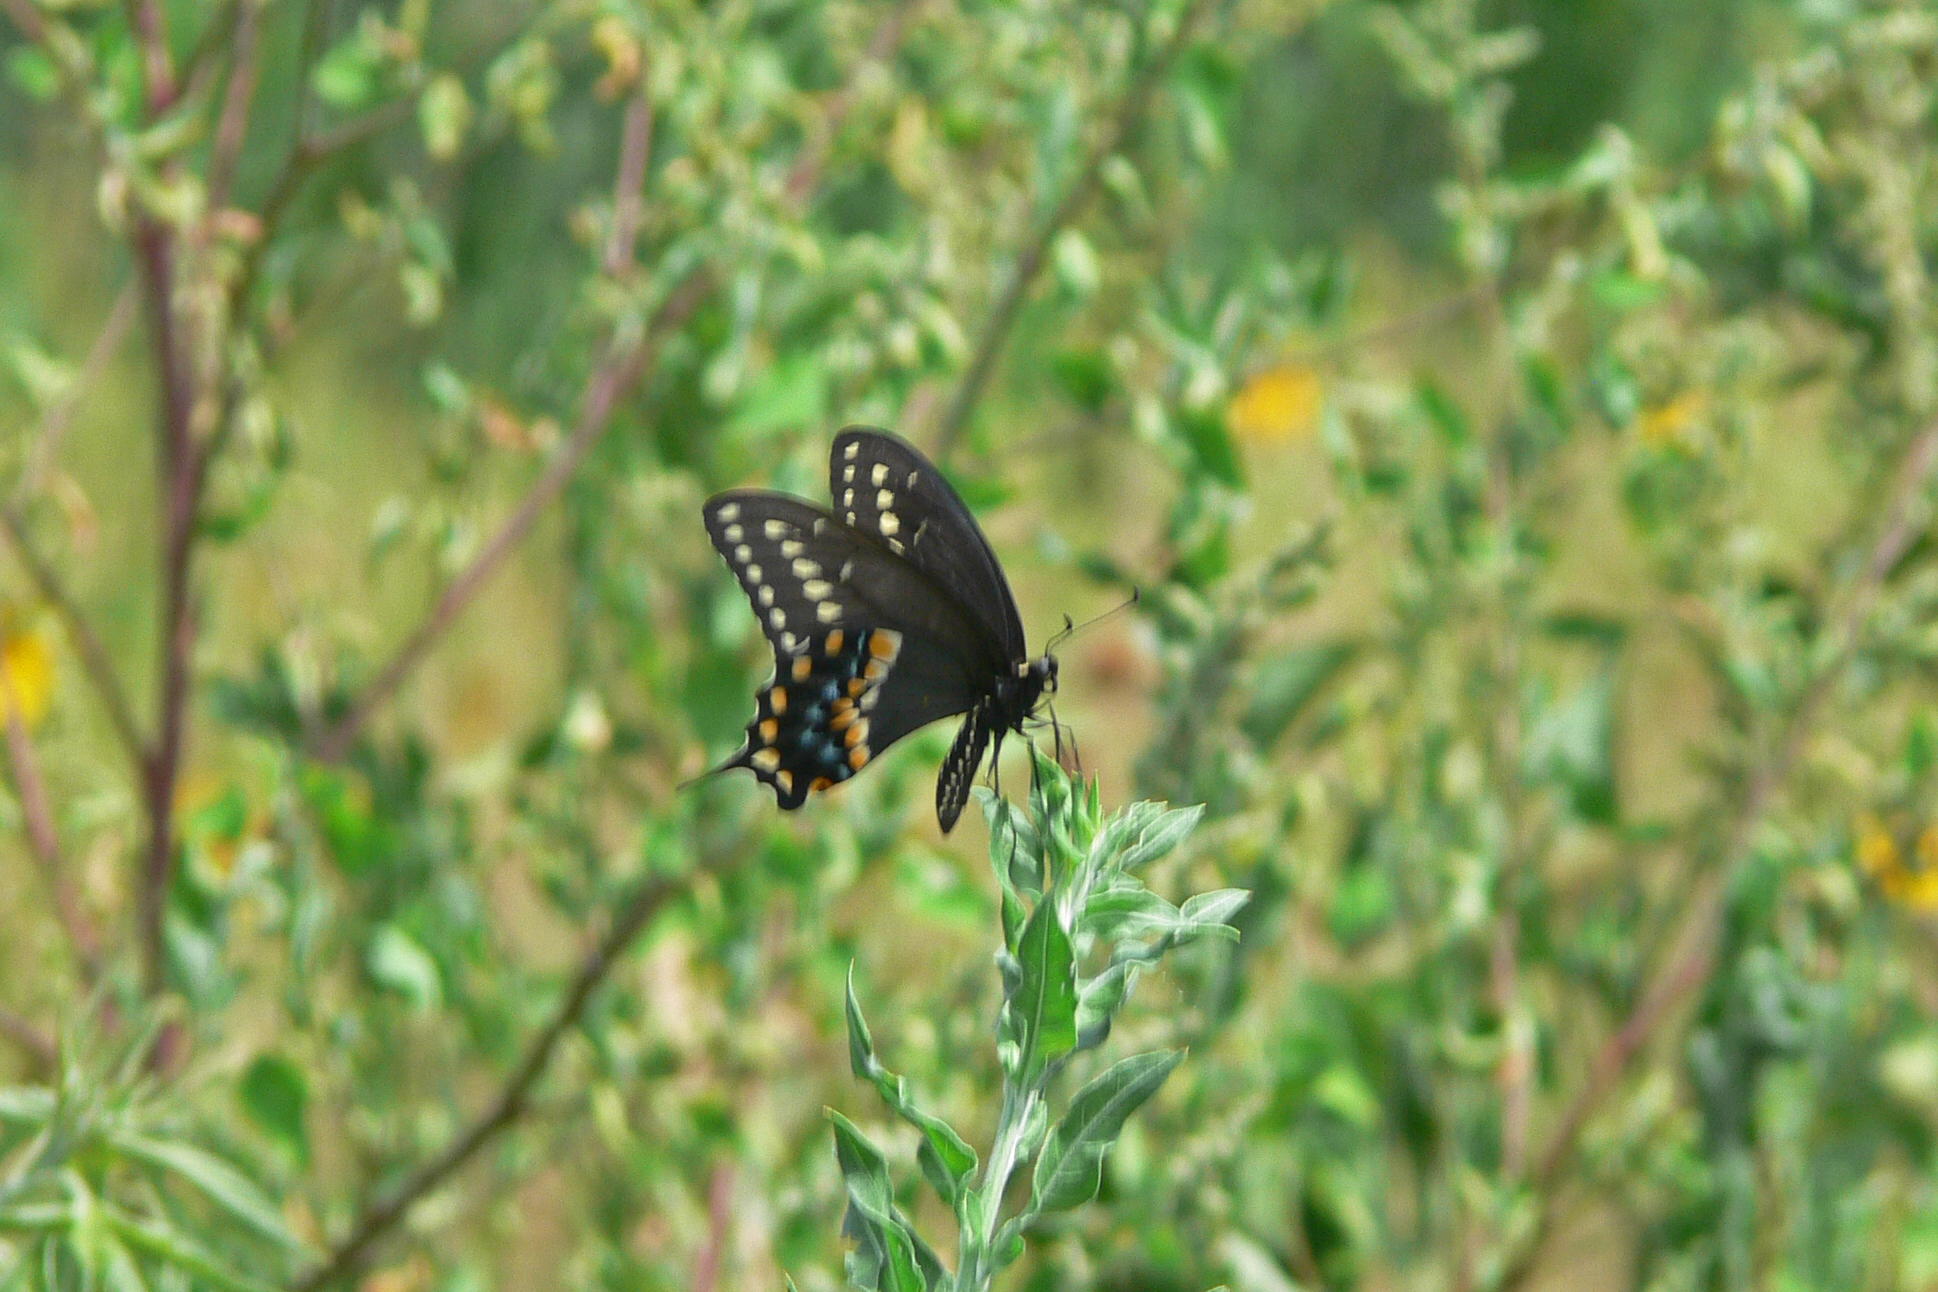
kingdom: Animalia
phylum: Arthropoda
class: Insecta
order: Lepidoptera
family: Papilionidae
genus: Papilio
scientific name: Papilio polyxenes
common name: Black swallowtail
